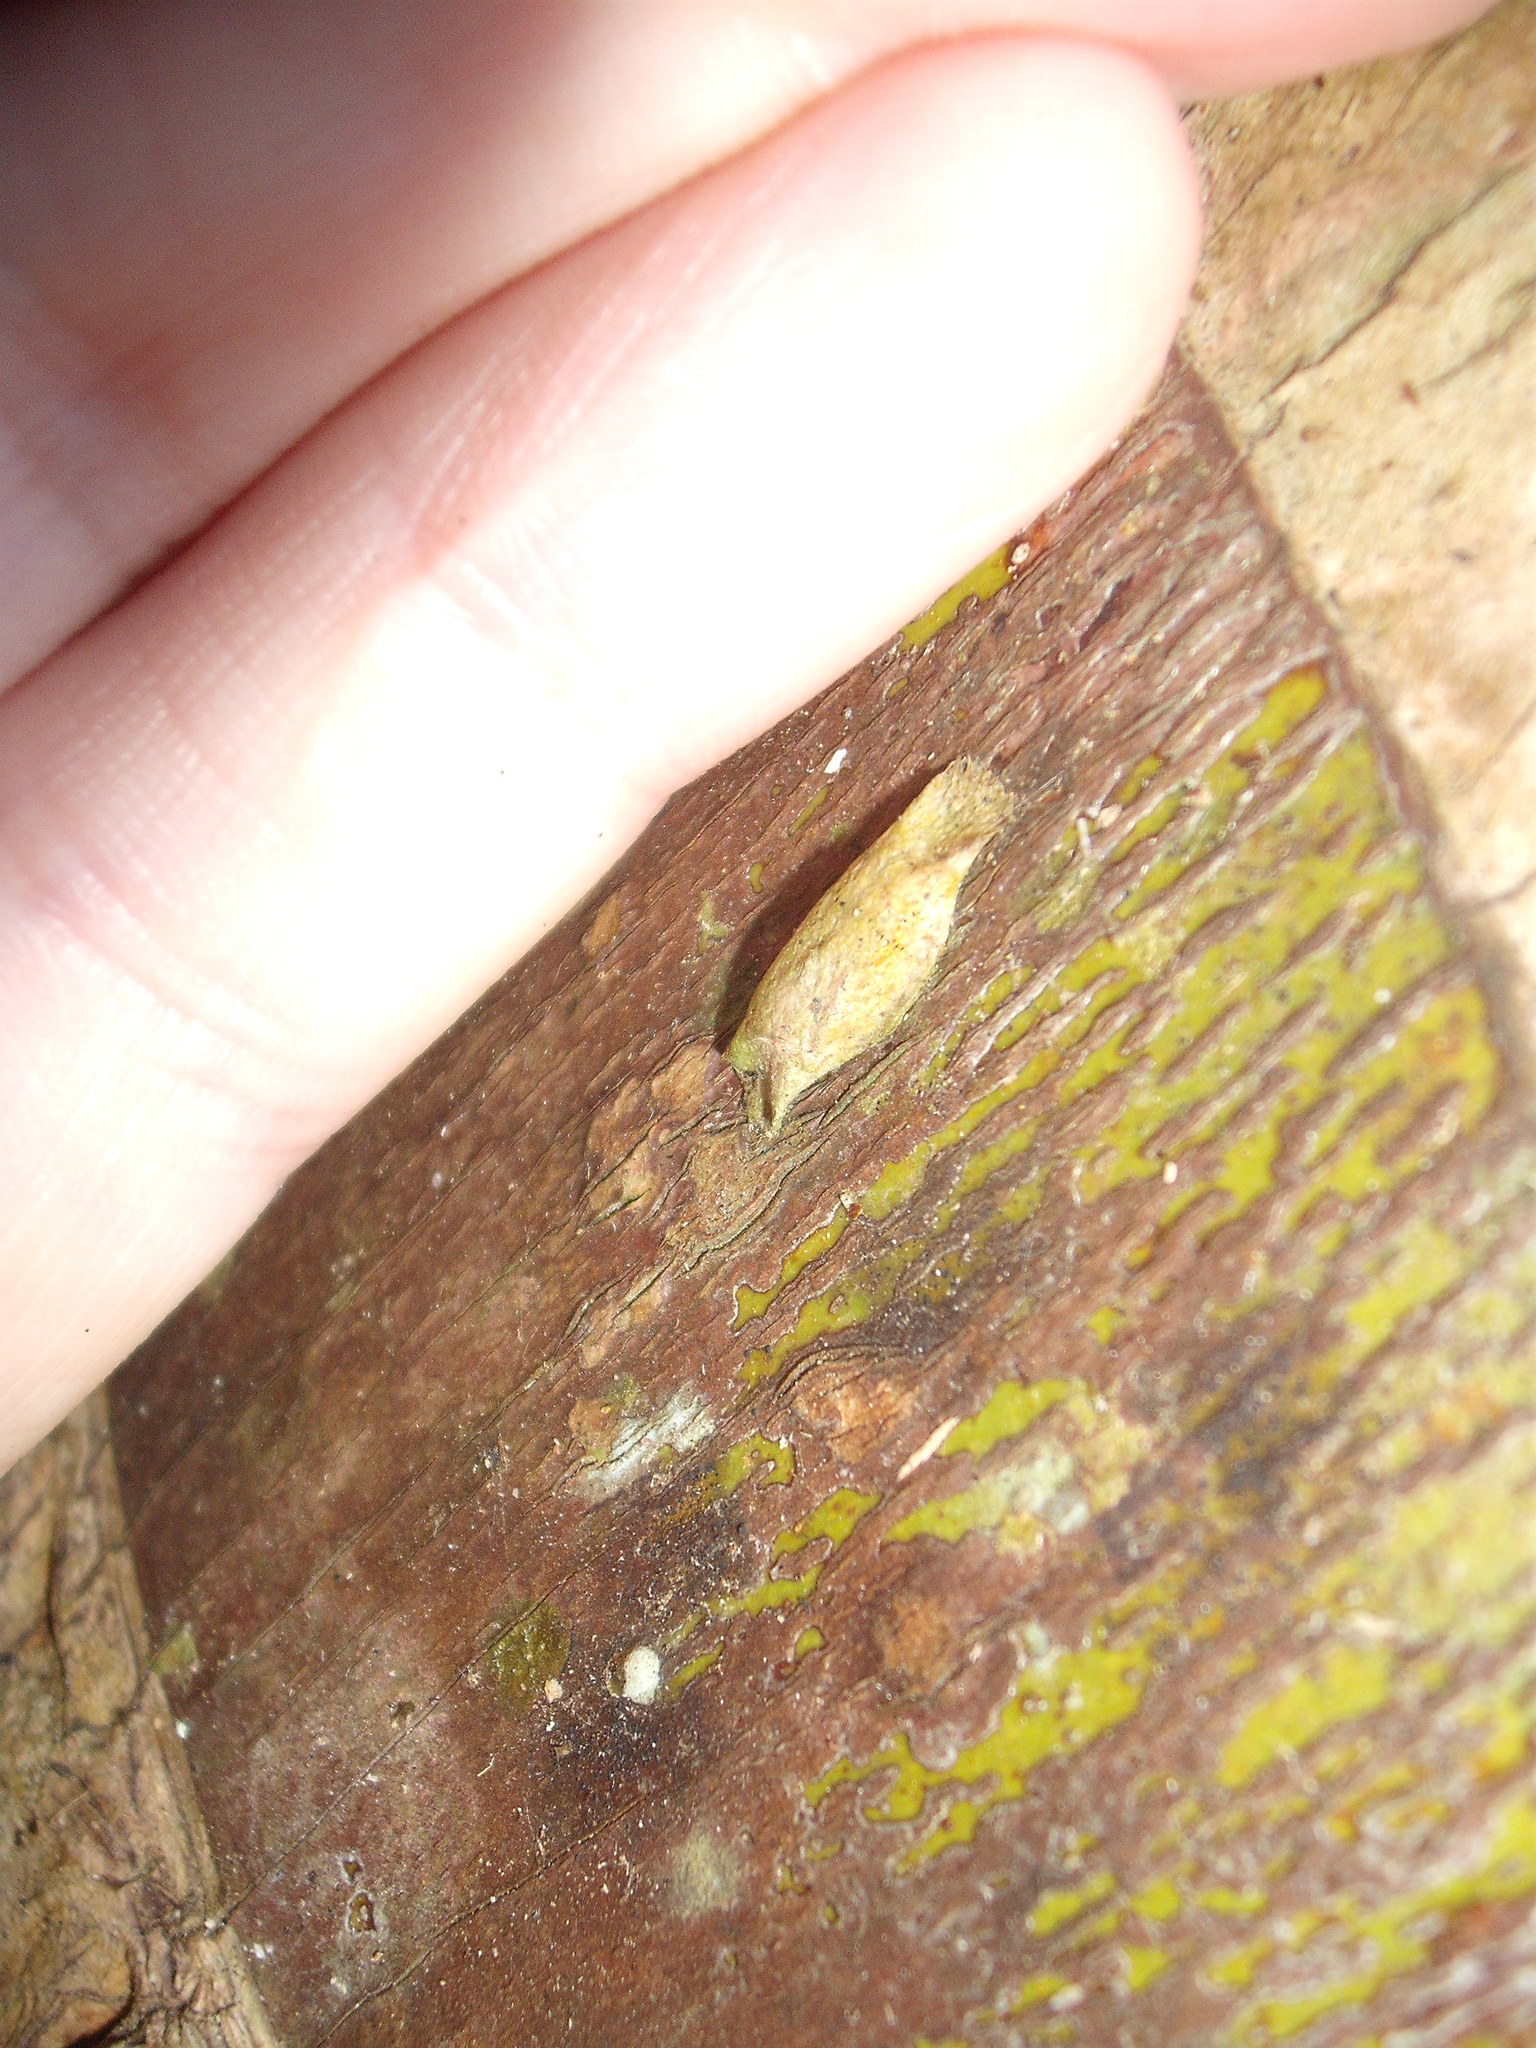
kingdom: Animalia
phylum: Arthropoda
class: Insecta
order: Lepidoptera
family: Plutellidae
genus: Doxophyrtis
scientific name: Doxophyrtis hydrocosma
